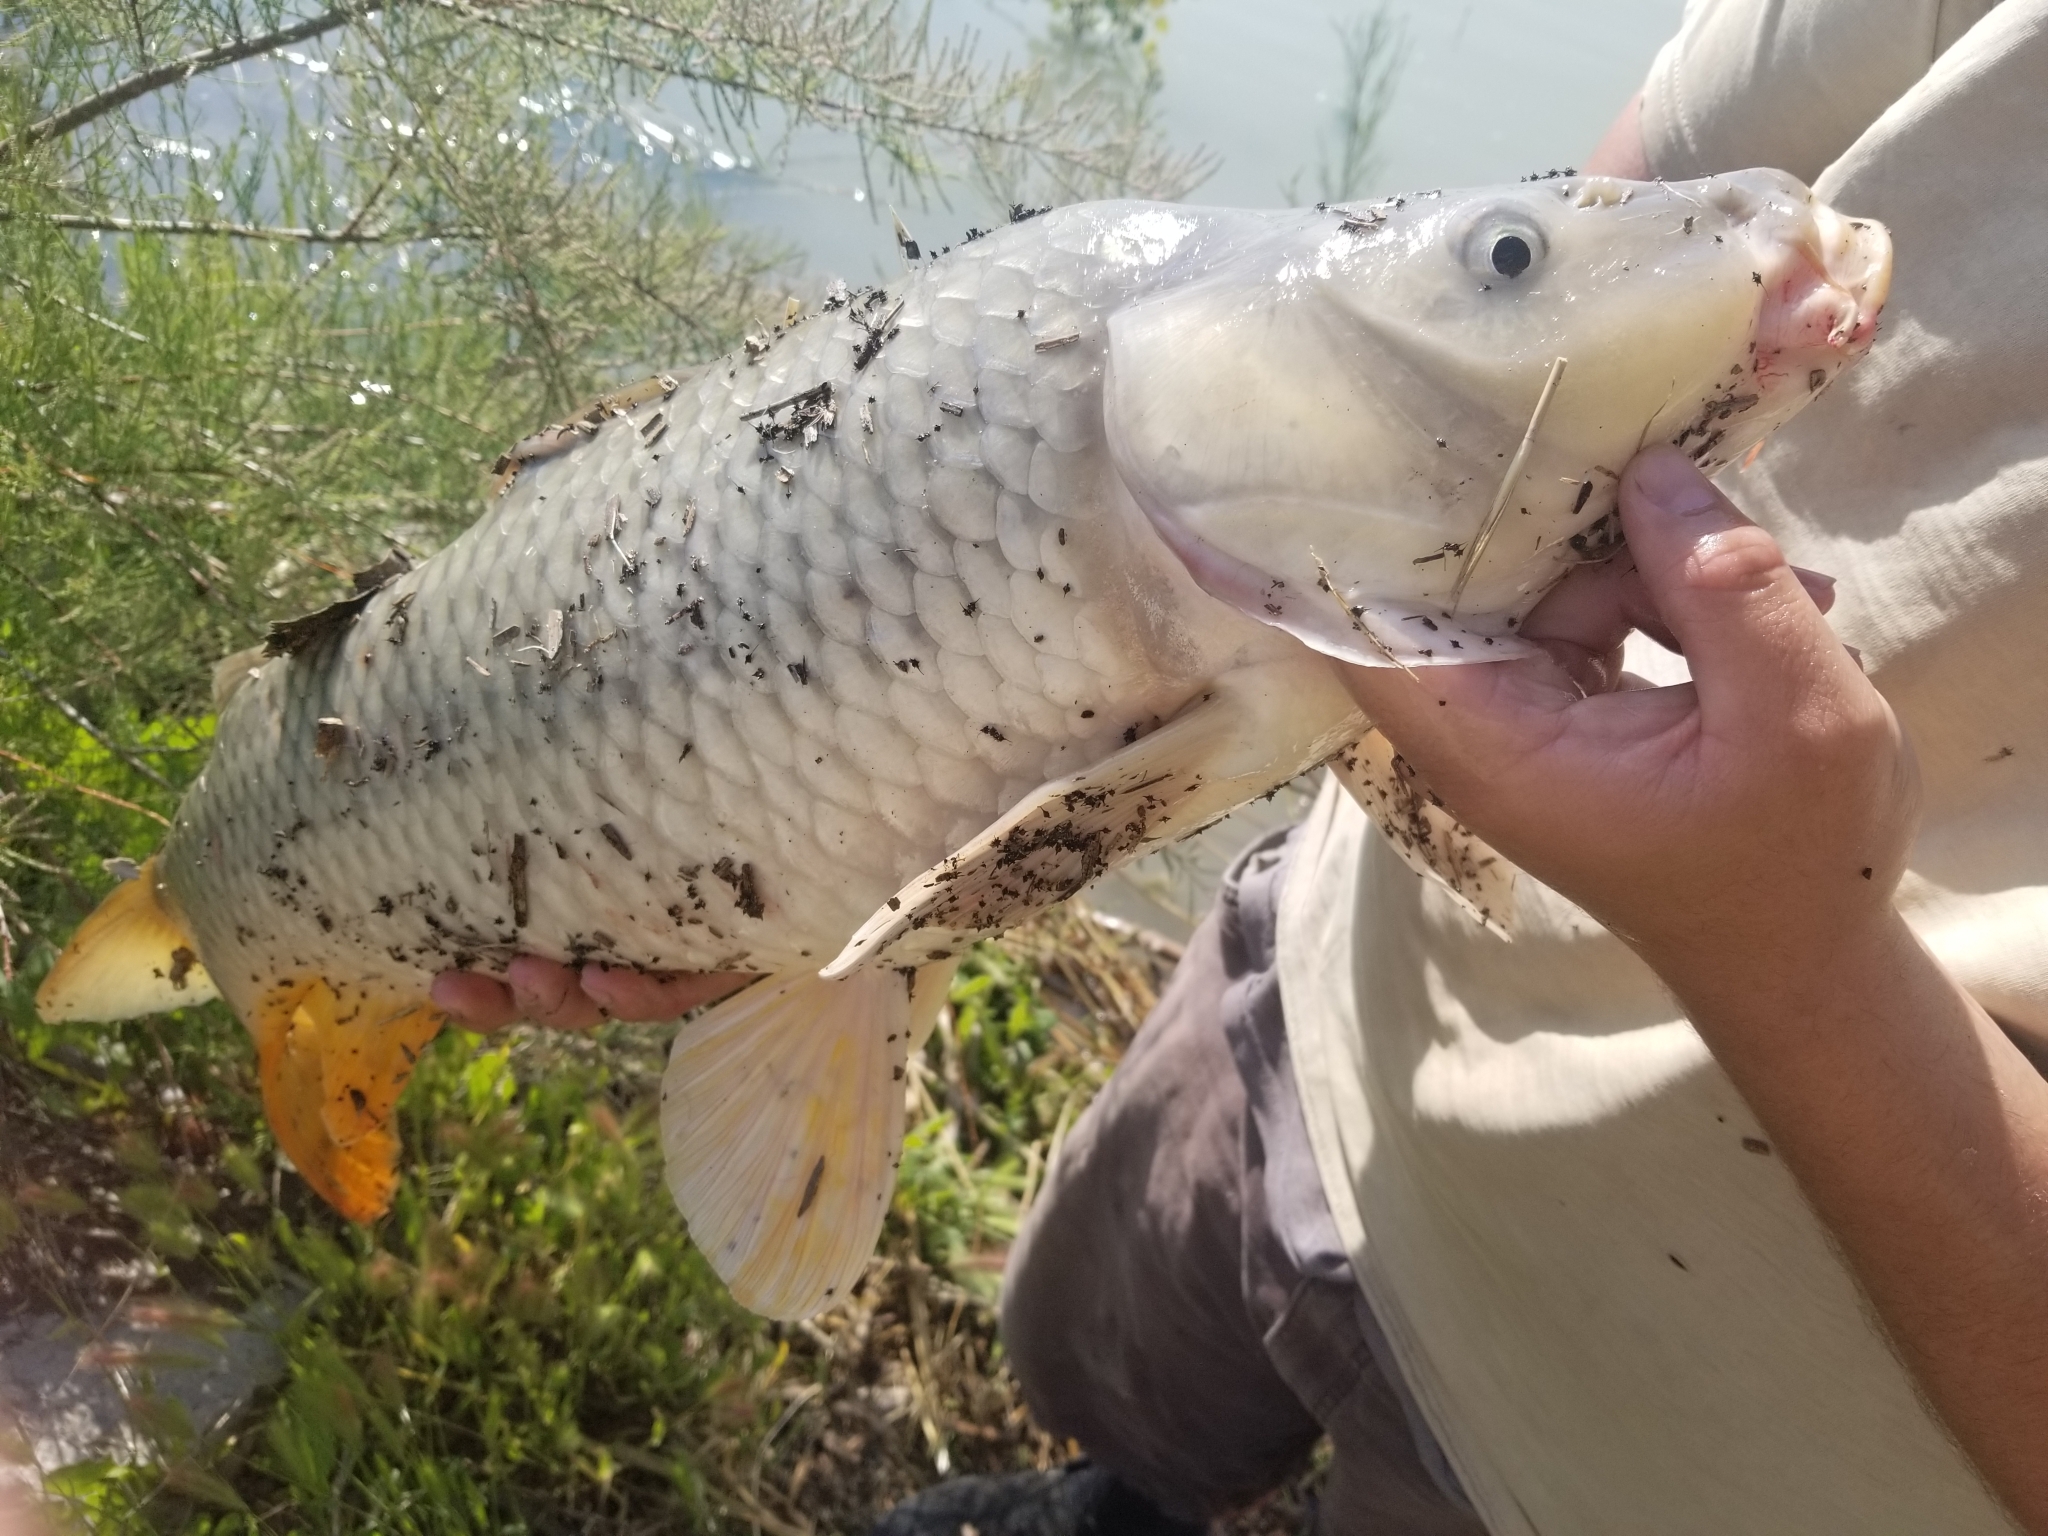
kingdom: Animalia
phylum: Chordata
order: Cypriniformes
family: Cyprinidae
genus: Cyprinus
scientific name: Cyprinus carpio
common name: Common carp
